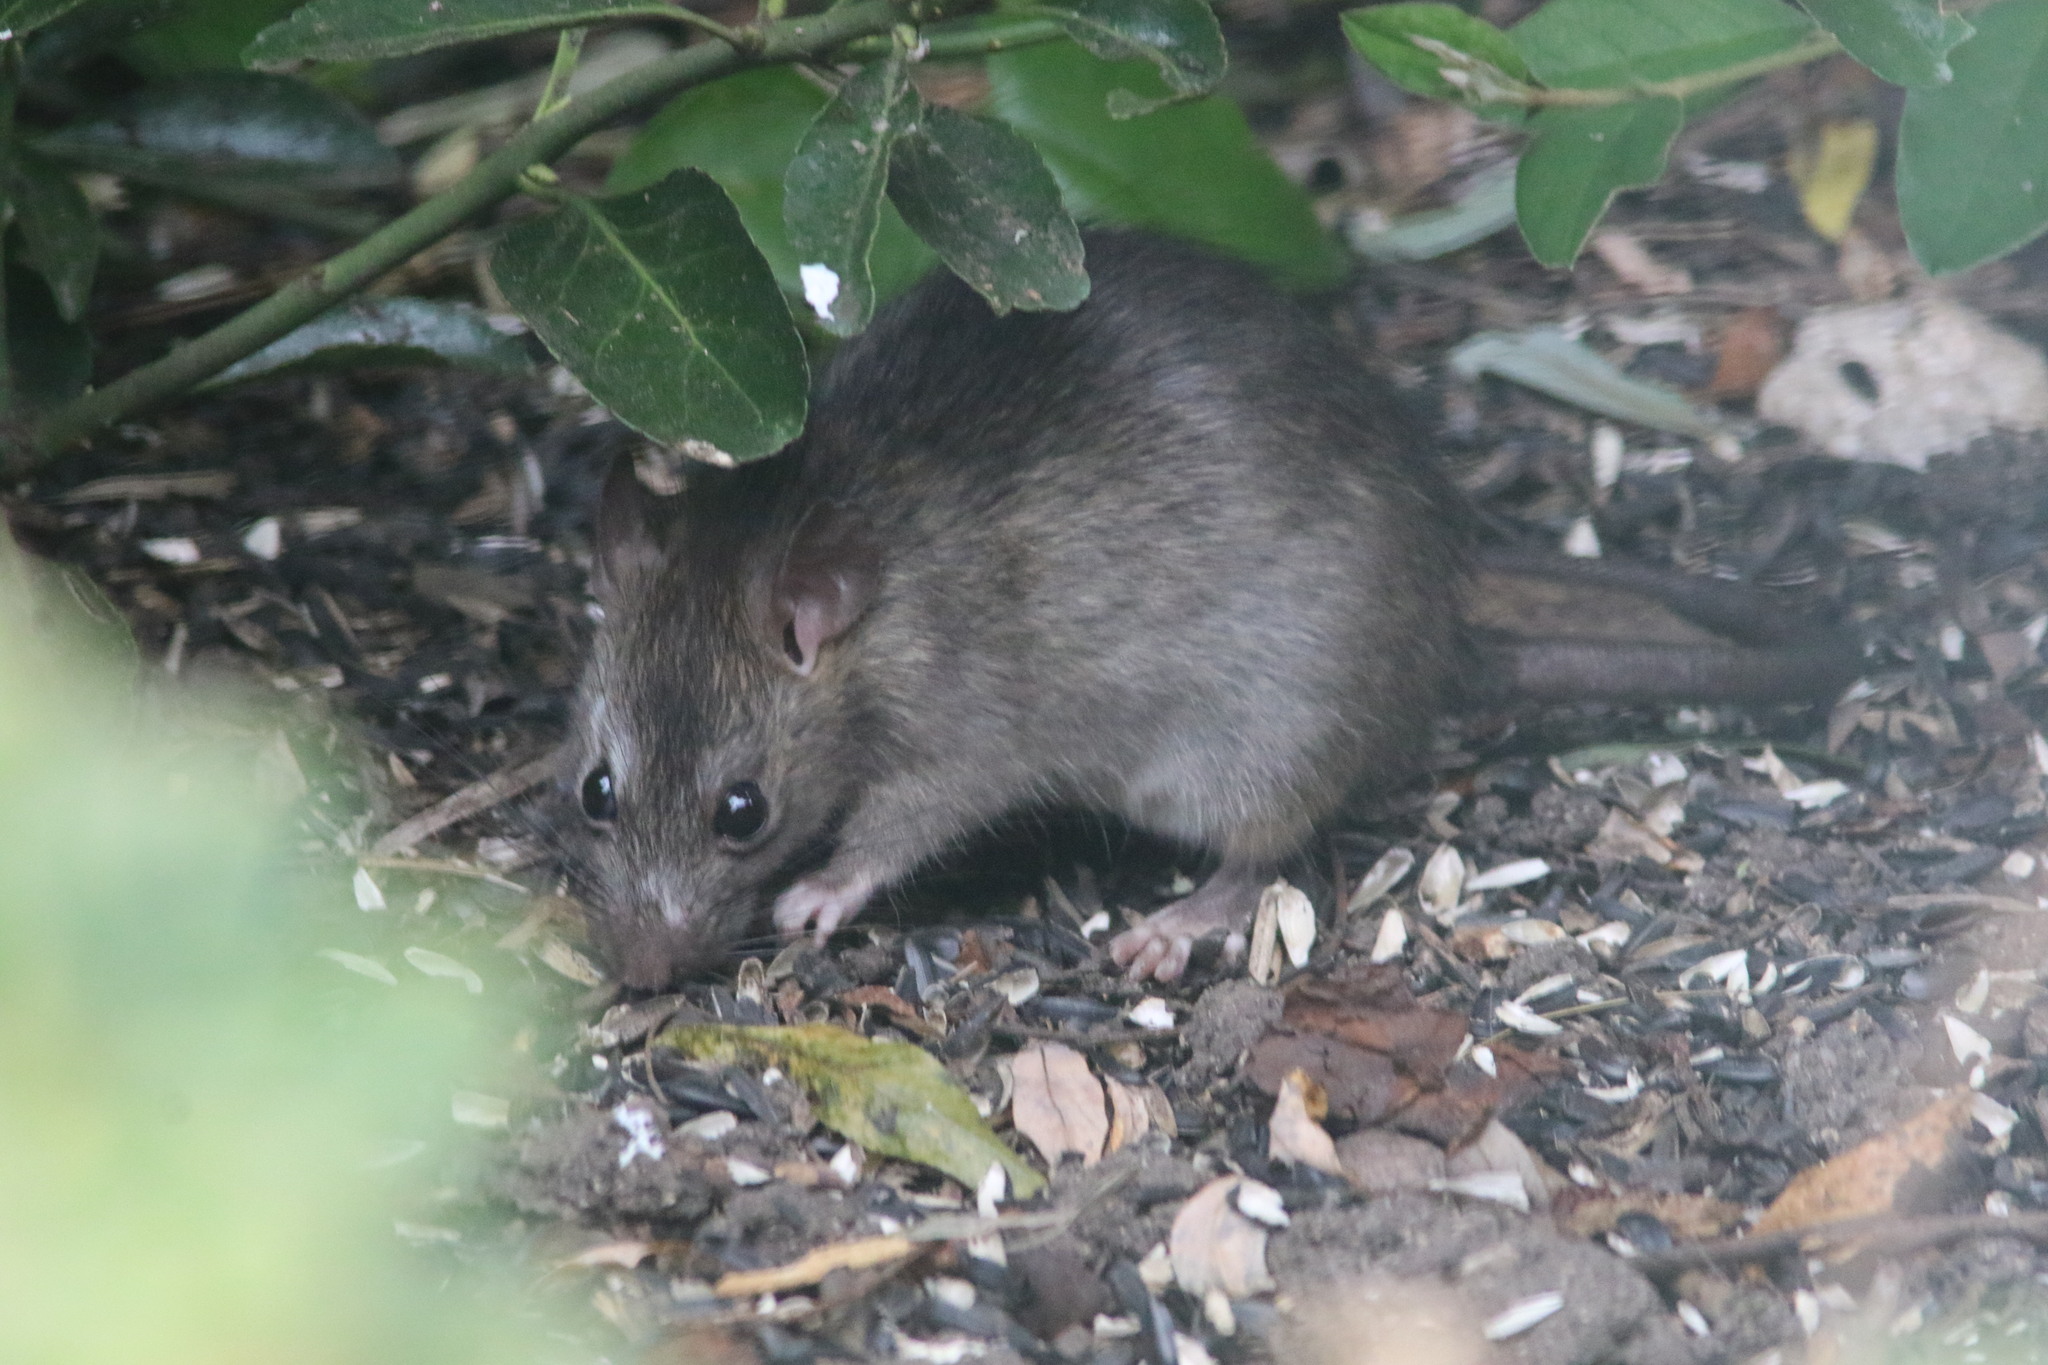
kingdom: Animalia
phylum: Chordata
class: Mammalia
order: Rodentia
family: Muridae
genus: Rattus
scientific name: Rattus rattus
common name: Black rat
